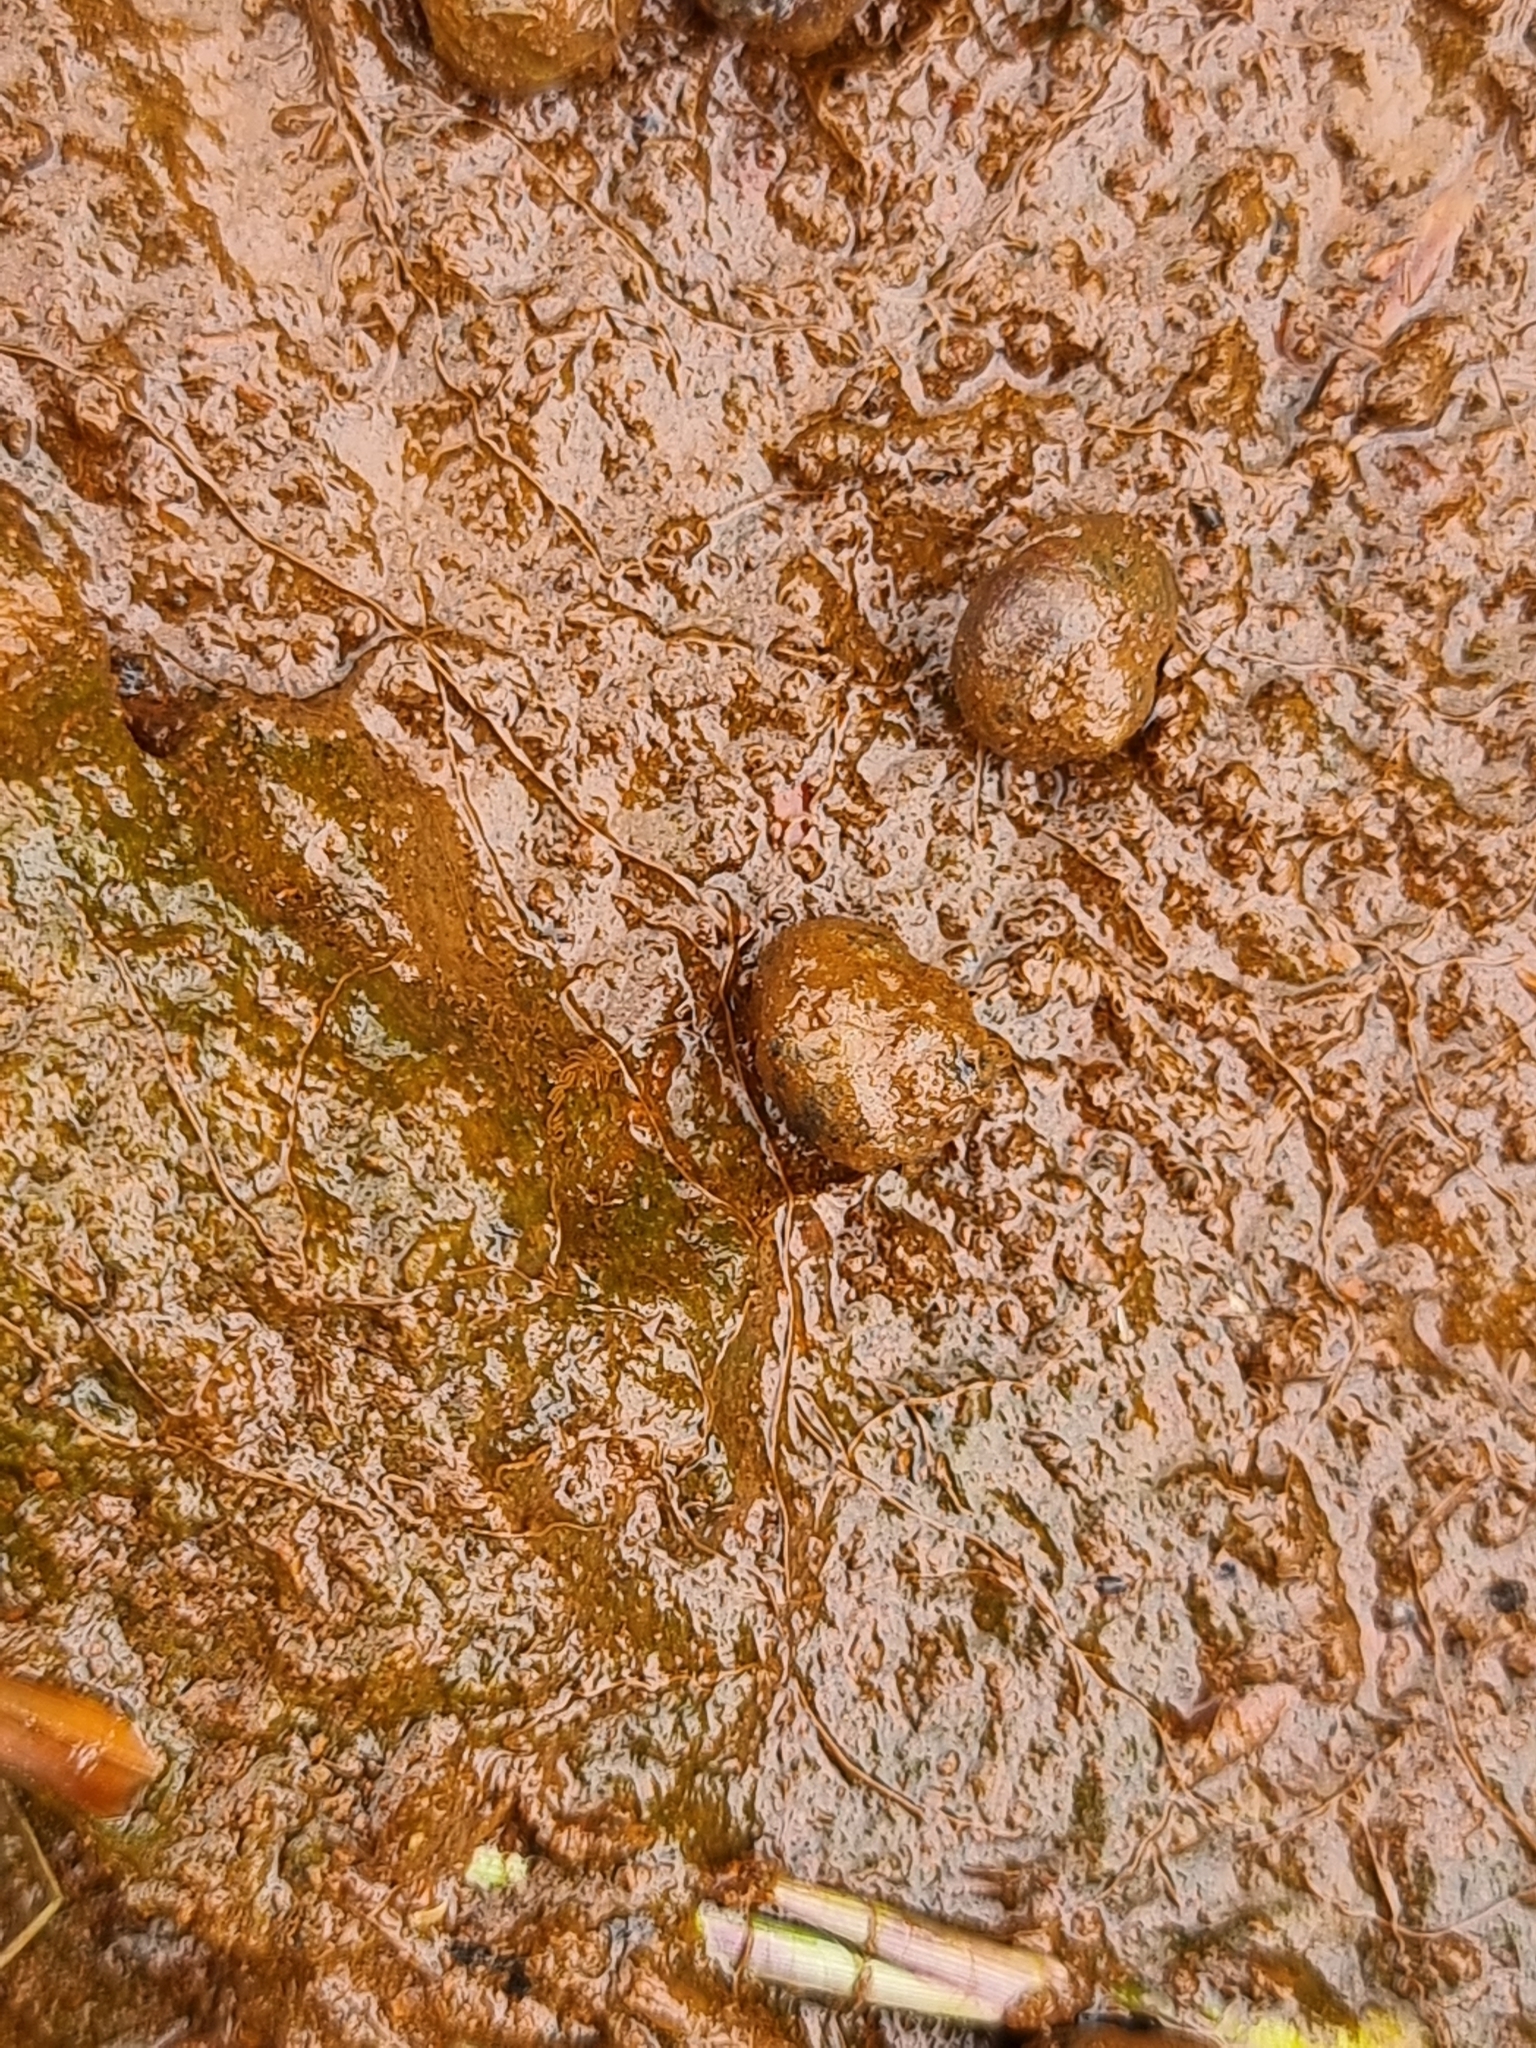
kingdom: Animalia
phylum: Mollusca
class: Gastropoda
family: Amphibolidae
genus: Phallomedusa
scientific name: Phallomedusa solida
